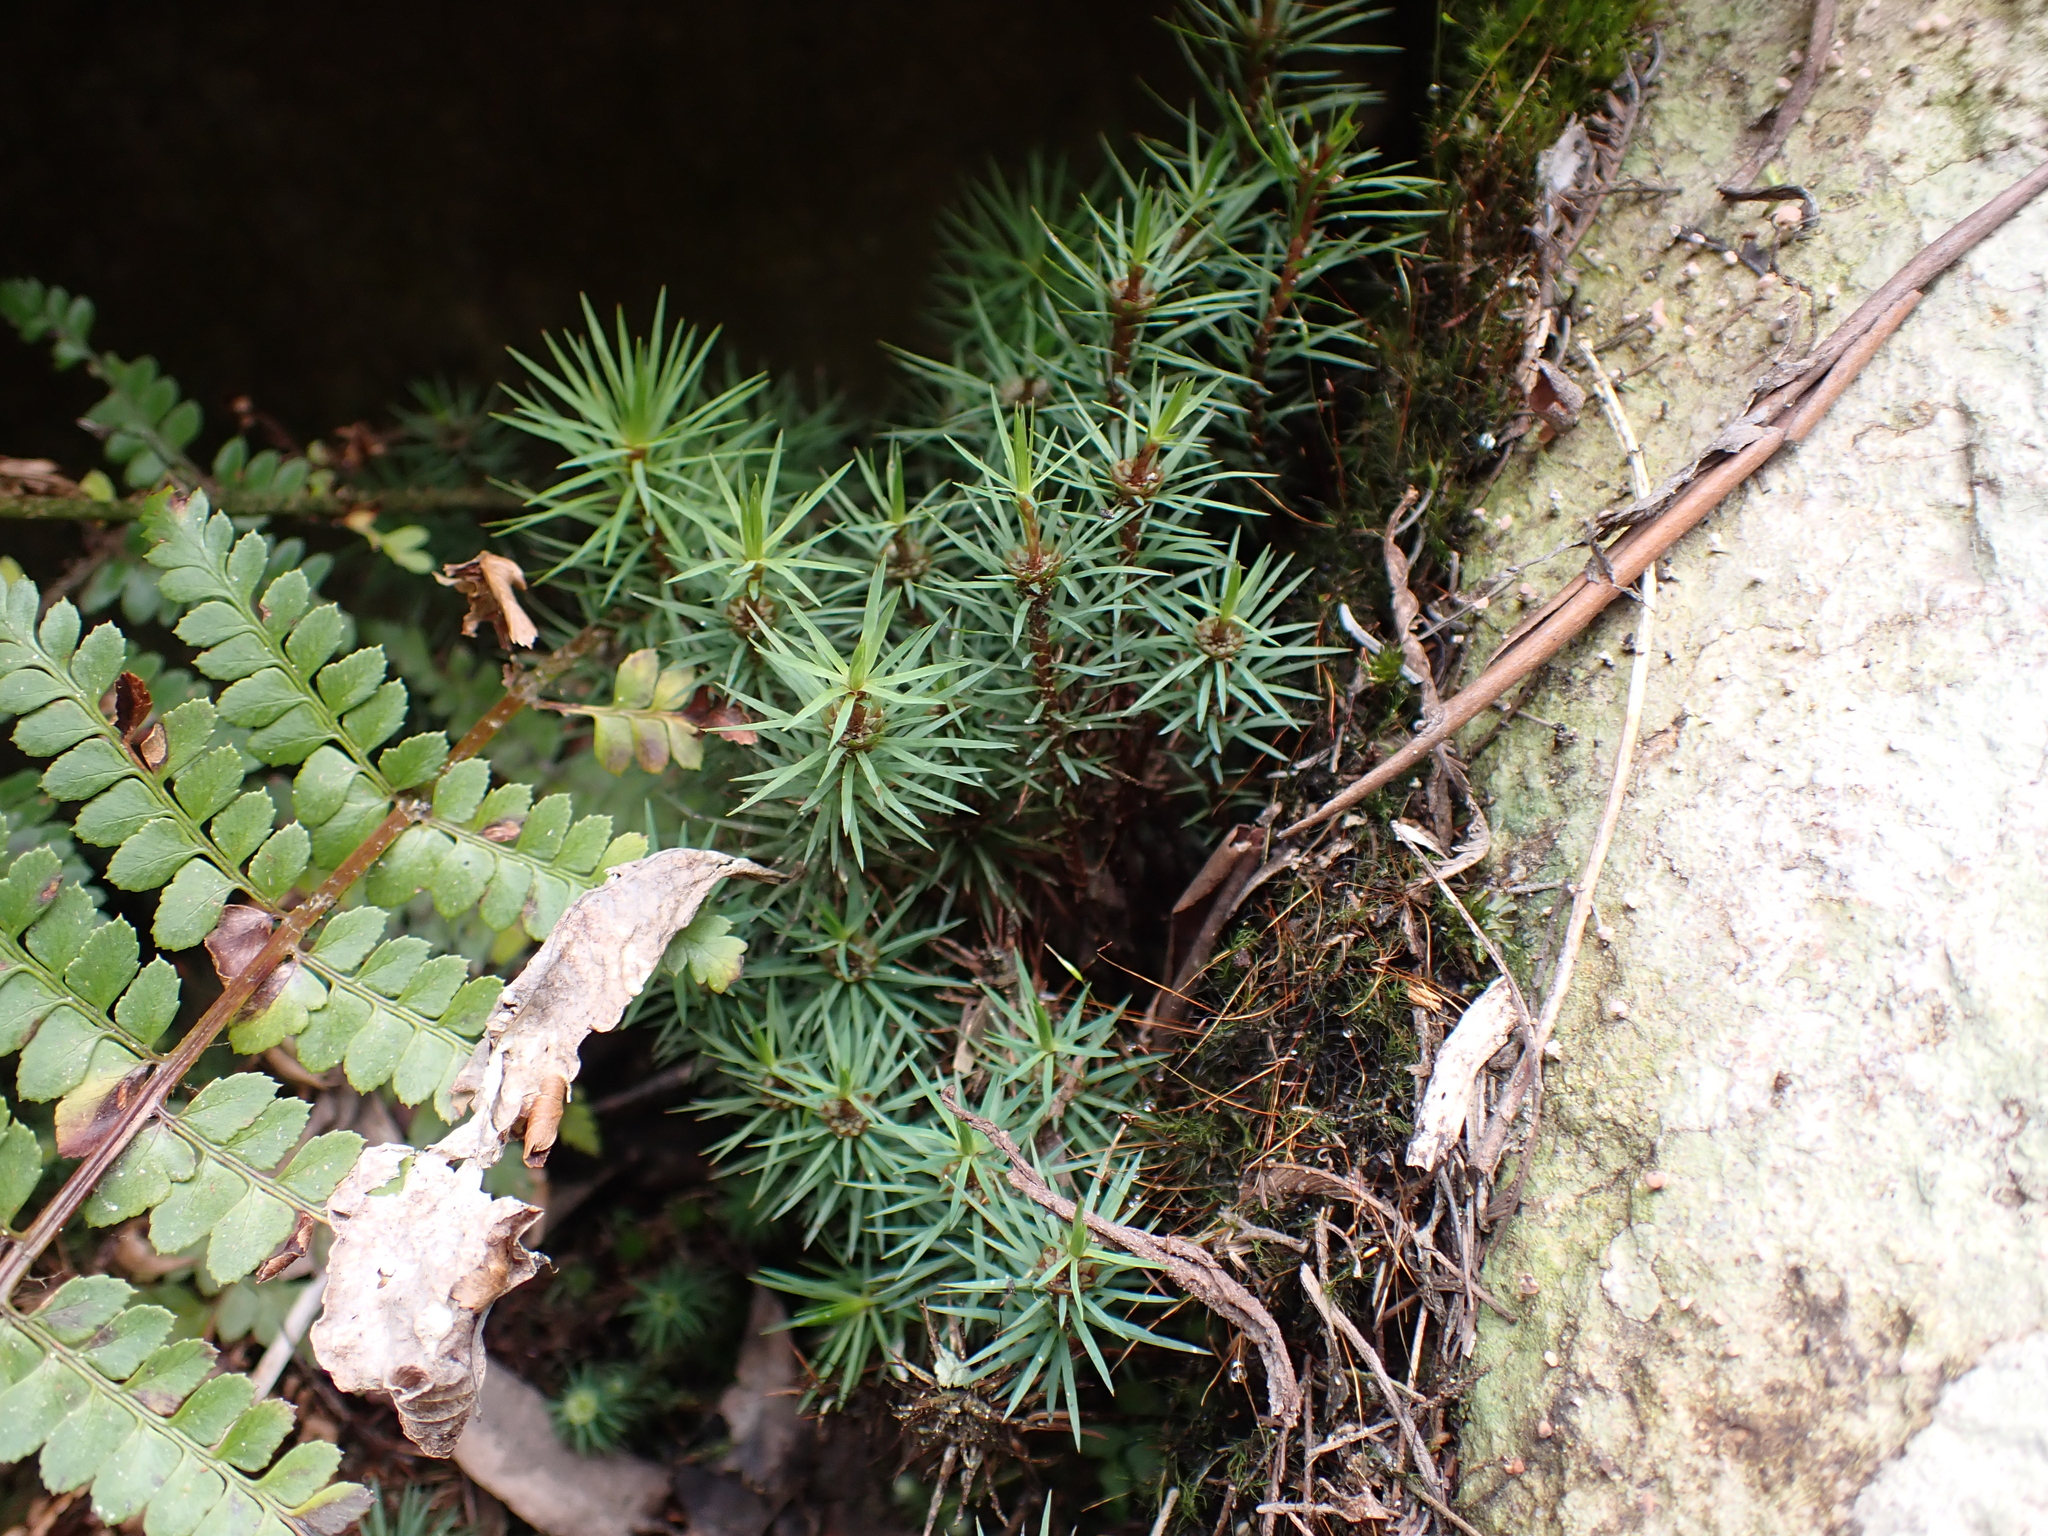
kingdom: Plantae
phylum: Bryophyta
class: Polytrichopsida
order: Polytrichales
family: Polytrichaceae
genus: Polytrichadelphus
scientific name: Polytrichadelphus magellanicus
